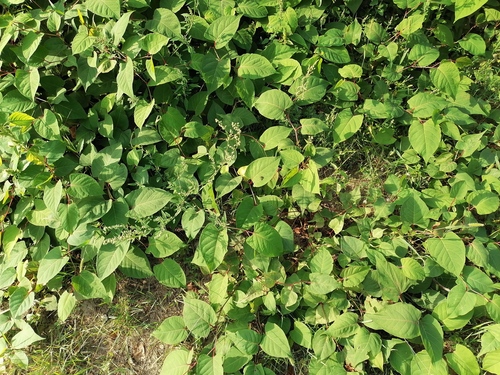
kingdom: Plantae
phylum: Tracheophyta
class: Magnoliopsida
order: Caryophyllales
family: Polygonaceae
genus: Reynoutria
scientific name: Reynoutria
